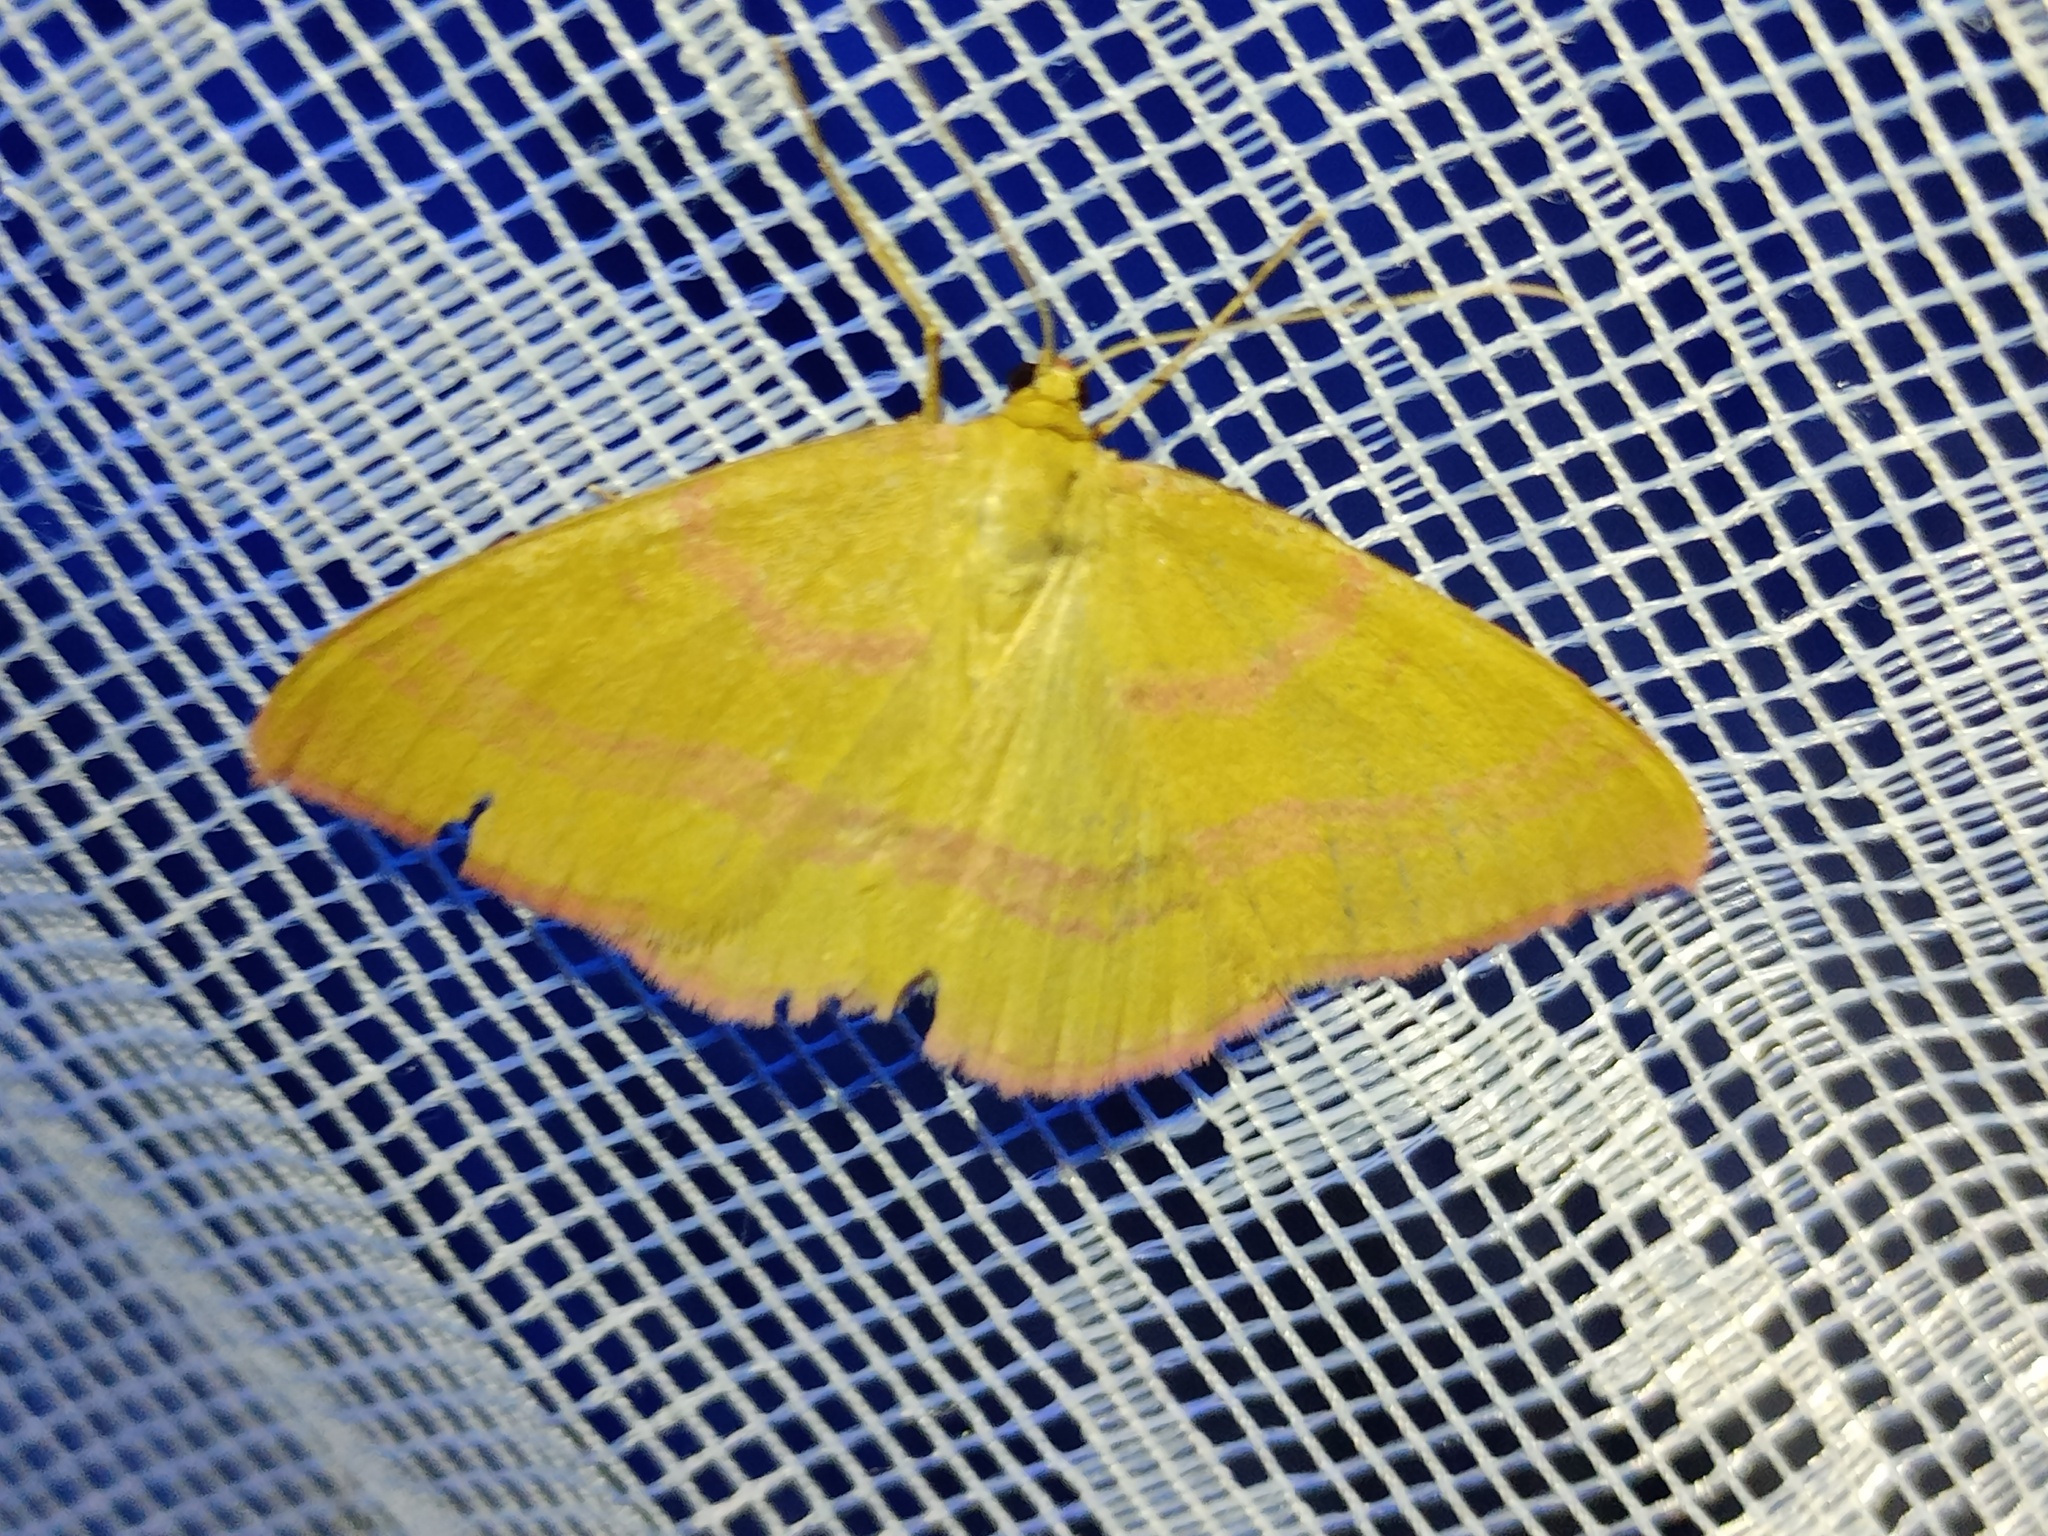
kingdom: Animalia
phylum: Arthropoda
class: Insecta
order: Lepidoptera
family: Geometridae
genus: Rhodostrophia
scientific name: Rhodostrophia calabra
